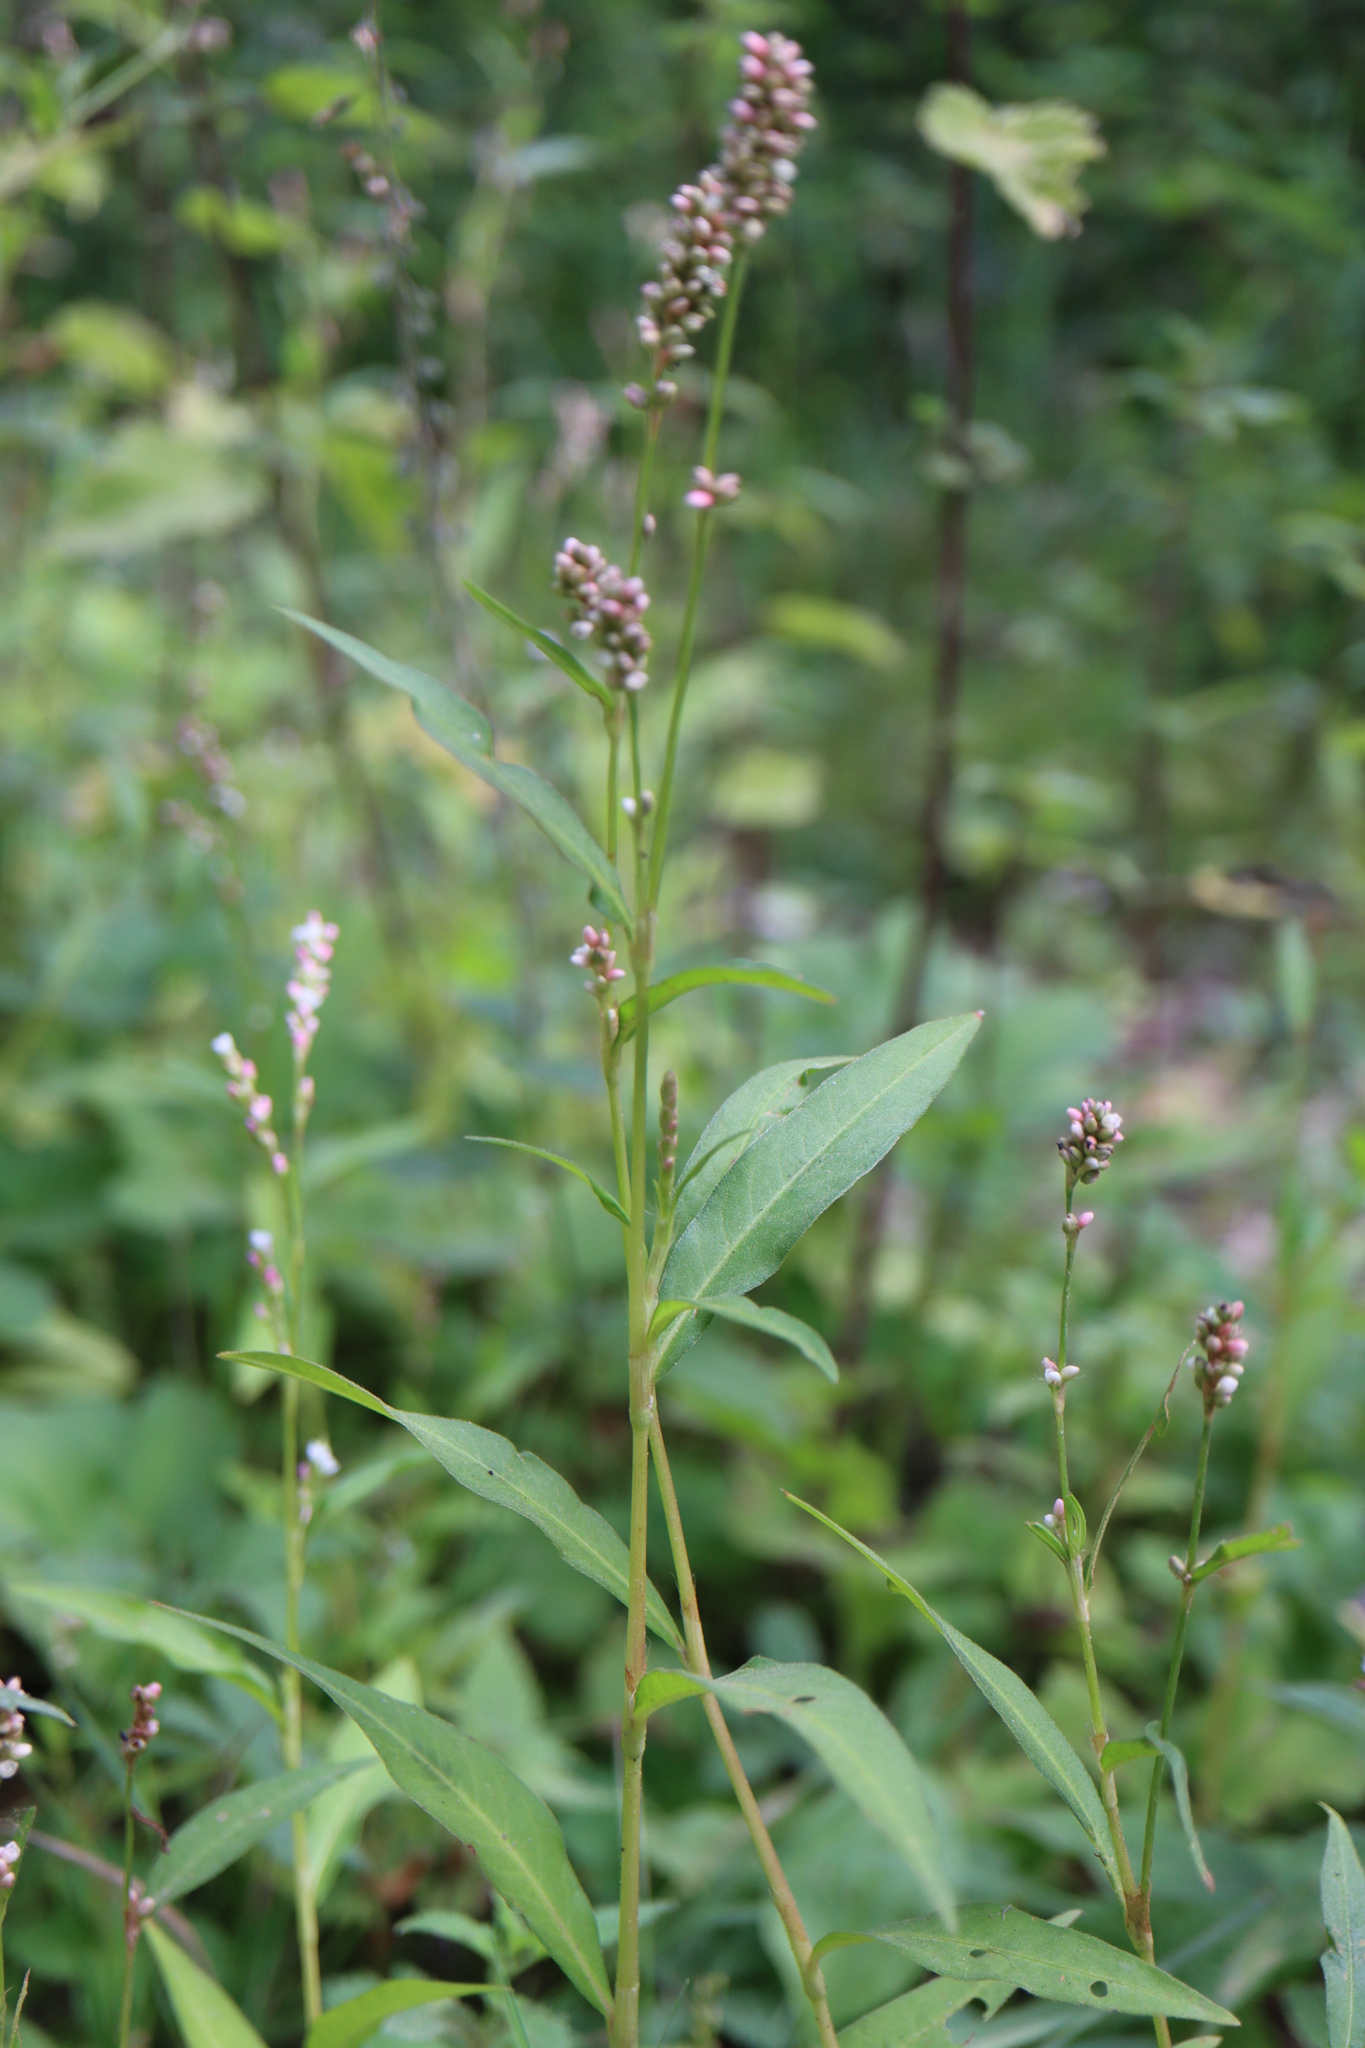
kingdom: Plantae
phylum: Tracheophyta
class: Magnoliopsida
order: Caryophyllales
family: Polygonaceae
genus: Persicaria
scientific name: Persicaria maculosa
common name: Redshank
